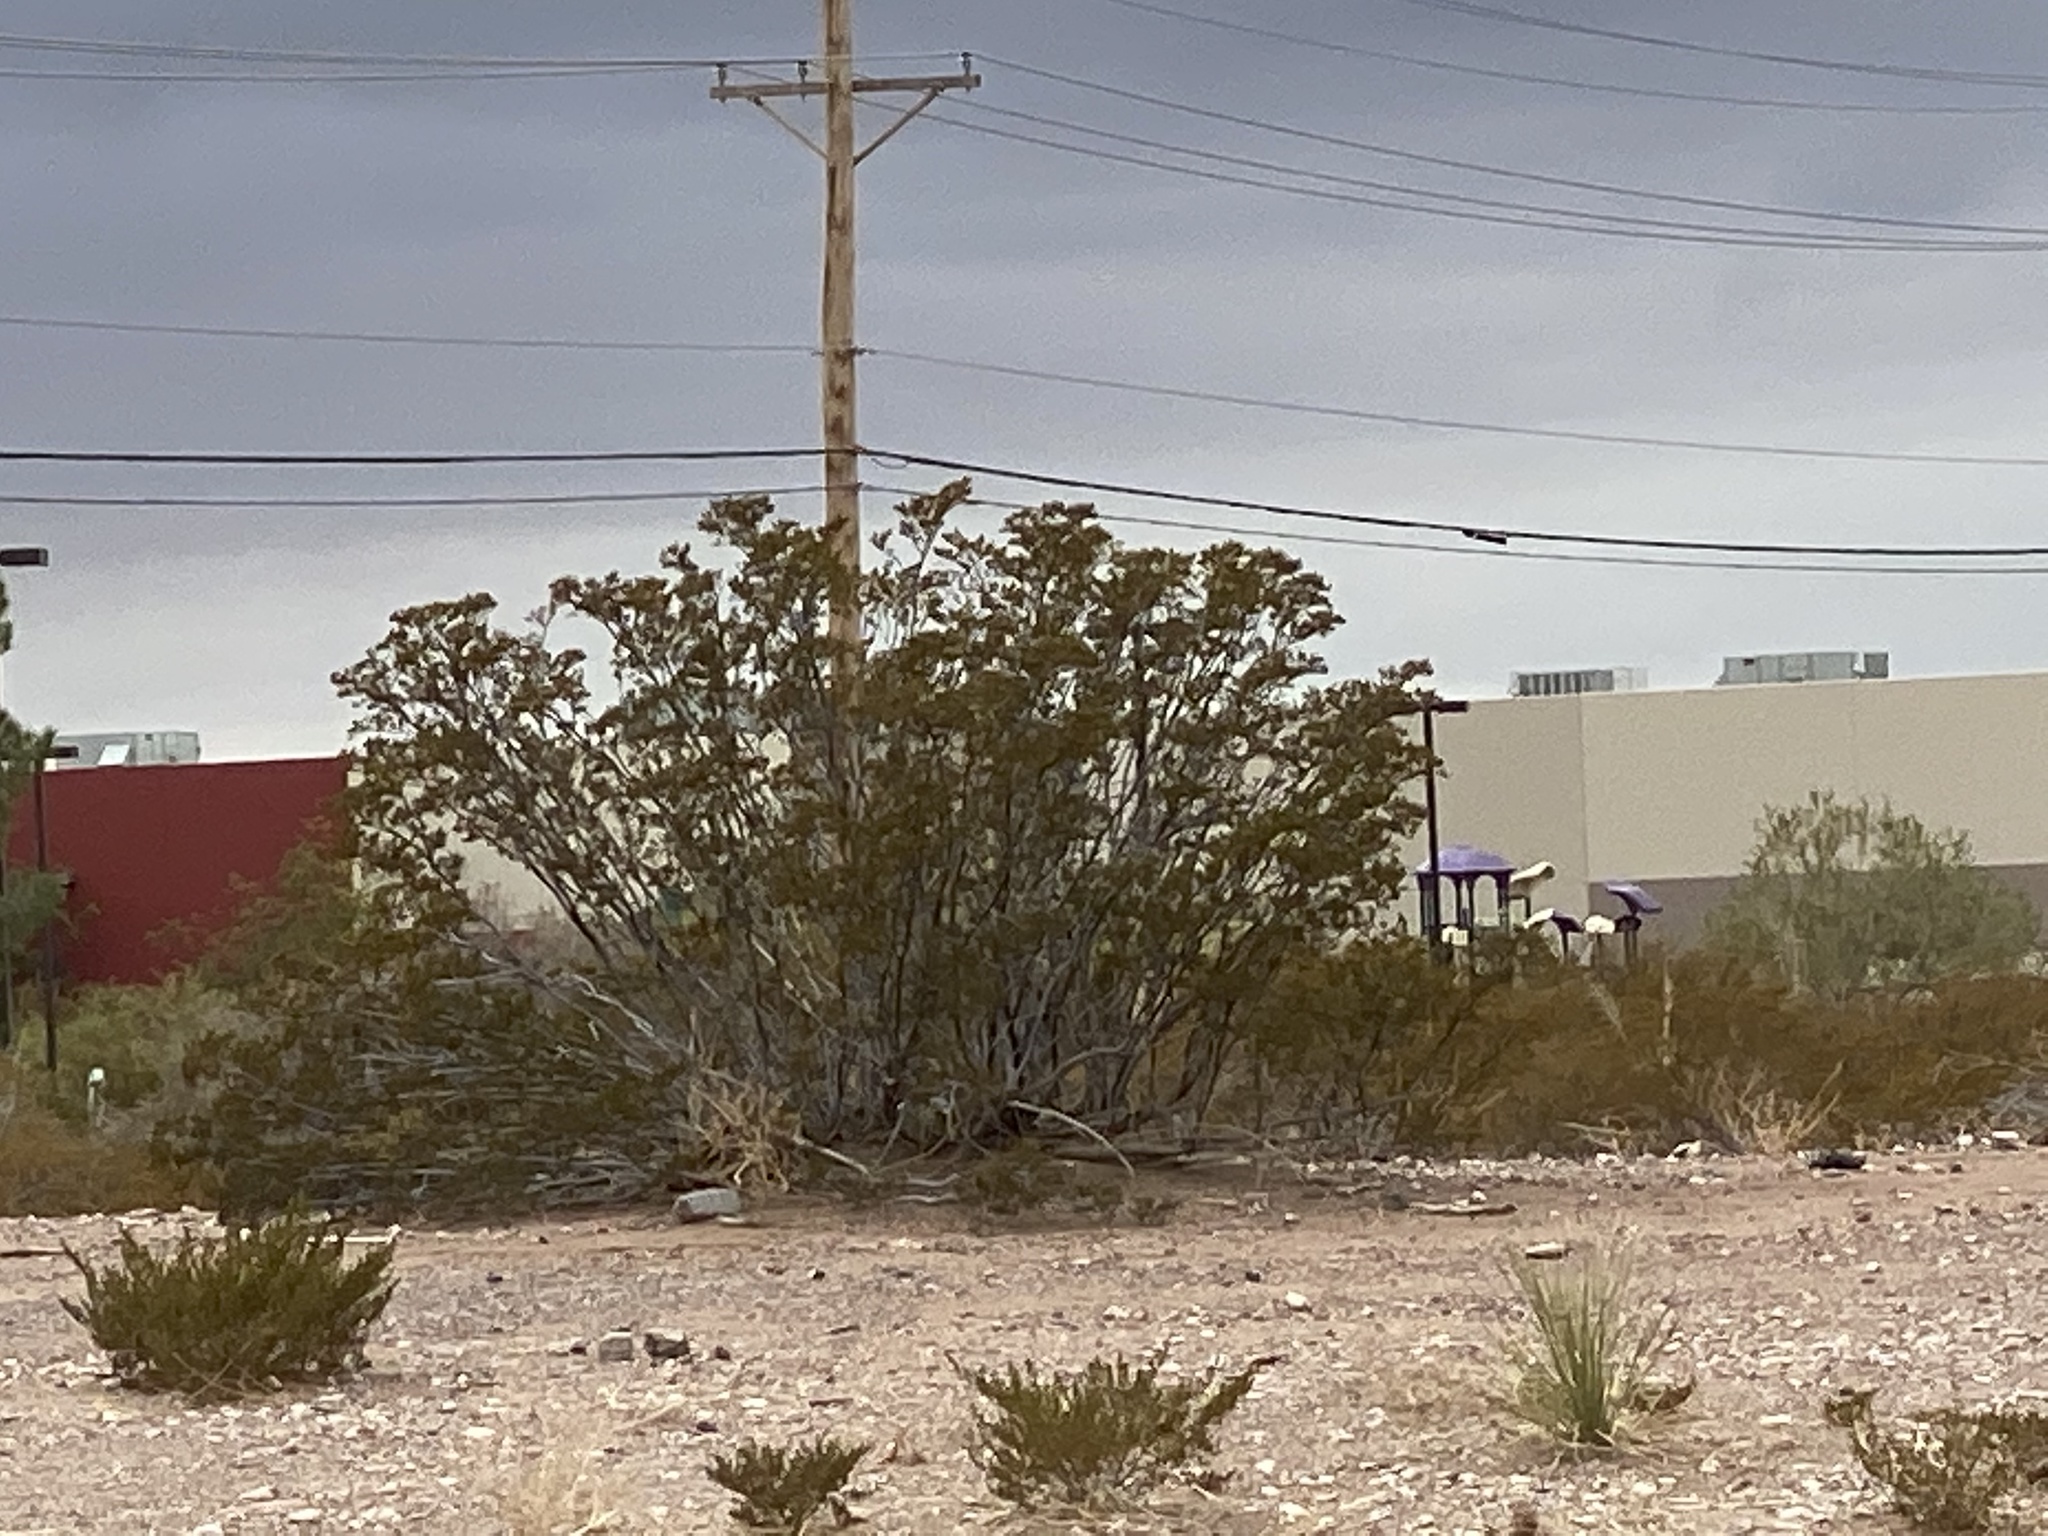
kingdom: Plantae
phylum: Tracheophyta
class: Magnoliopsida
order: Zygophyllales
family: Zygophyllaceae
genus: Larrea
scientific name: Larrea tridentata
